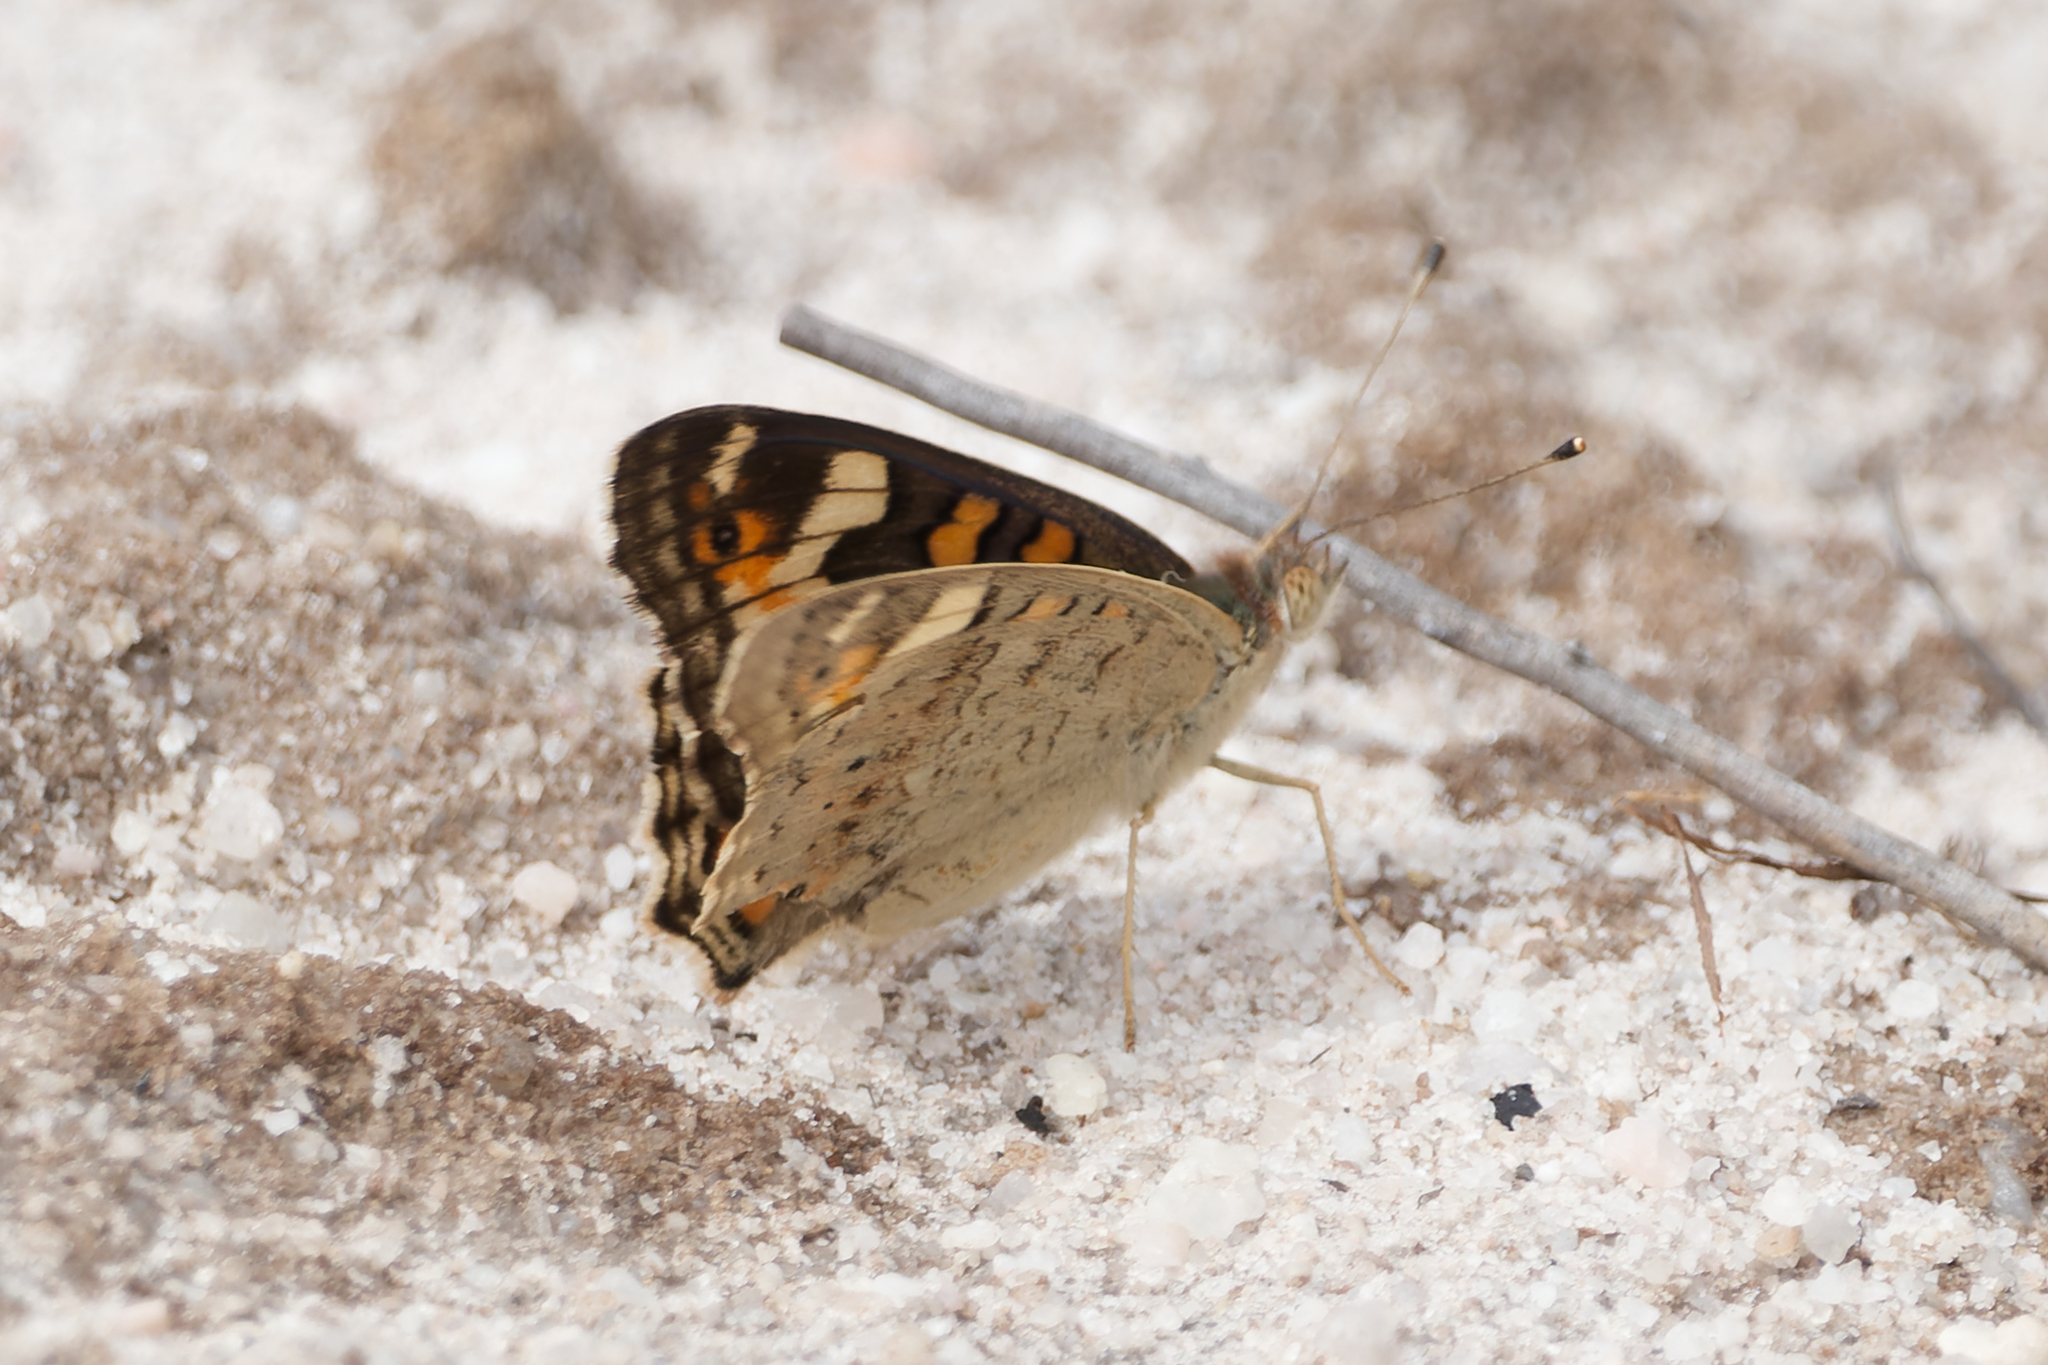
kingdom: Animalia
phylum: Arthropoda
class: Insecta
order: Lepidoptera
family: Nymphalidae
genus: Junonia
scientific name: Junonia villida
